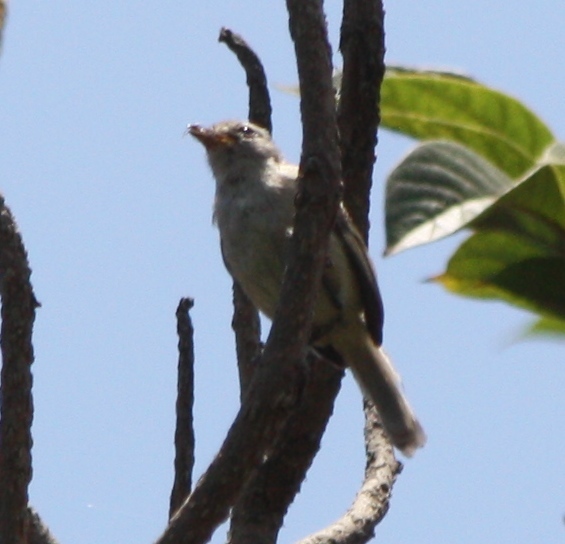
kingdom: Animalia
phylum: Chordata
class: Aves
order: Passeriformes
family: Tyrannidae
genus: Camptostoma
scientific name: Camptostoma obsoletum
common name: Southern beardless-tyrannulet
